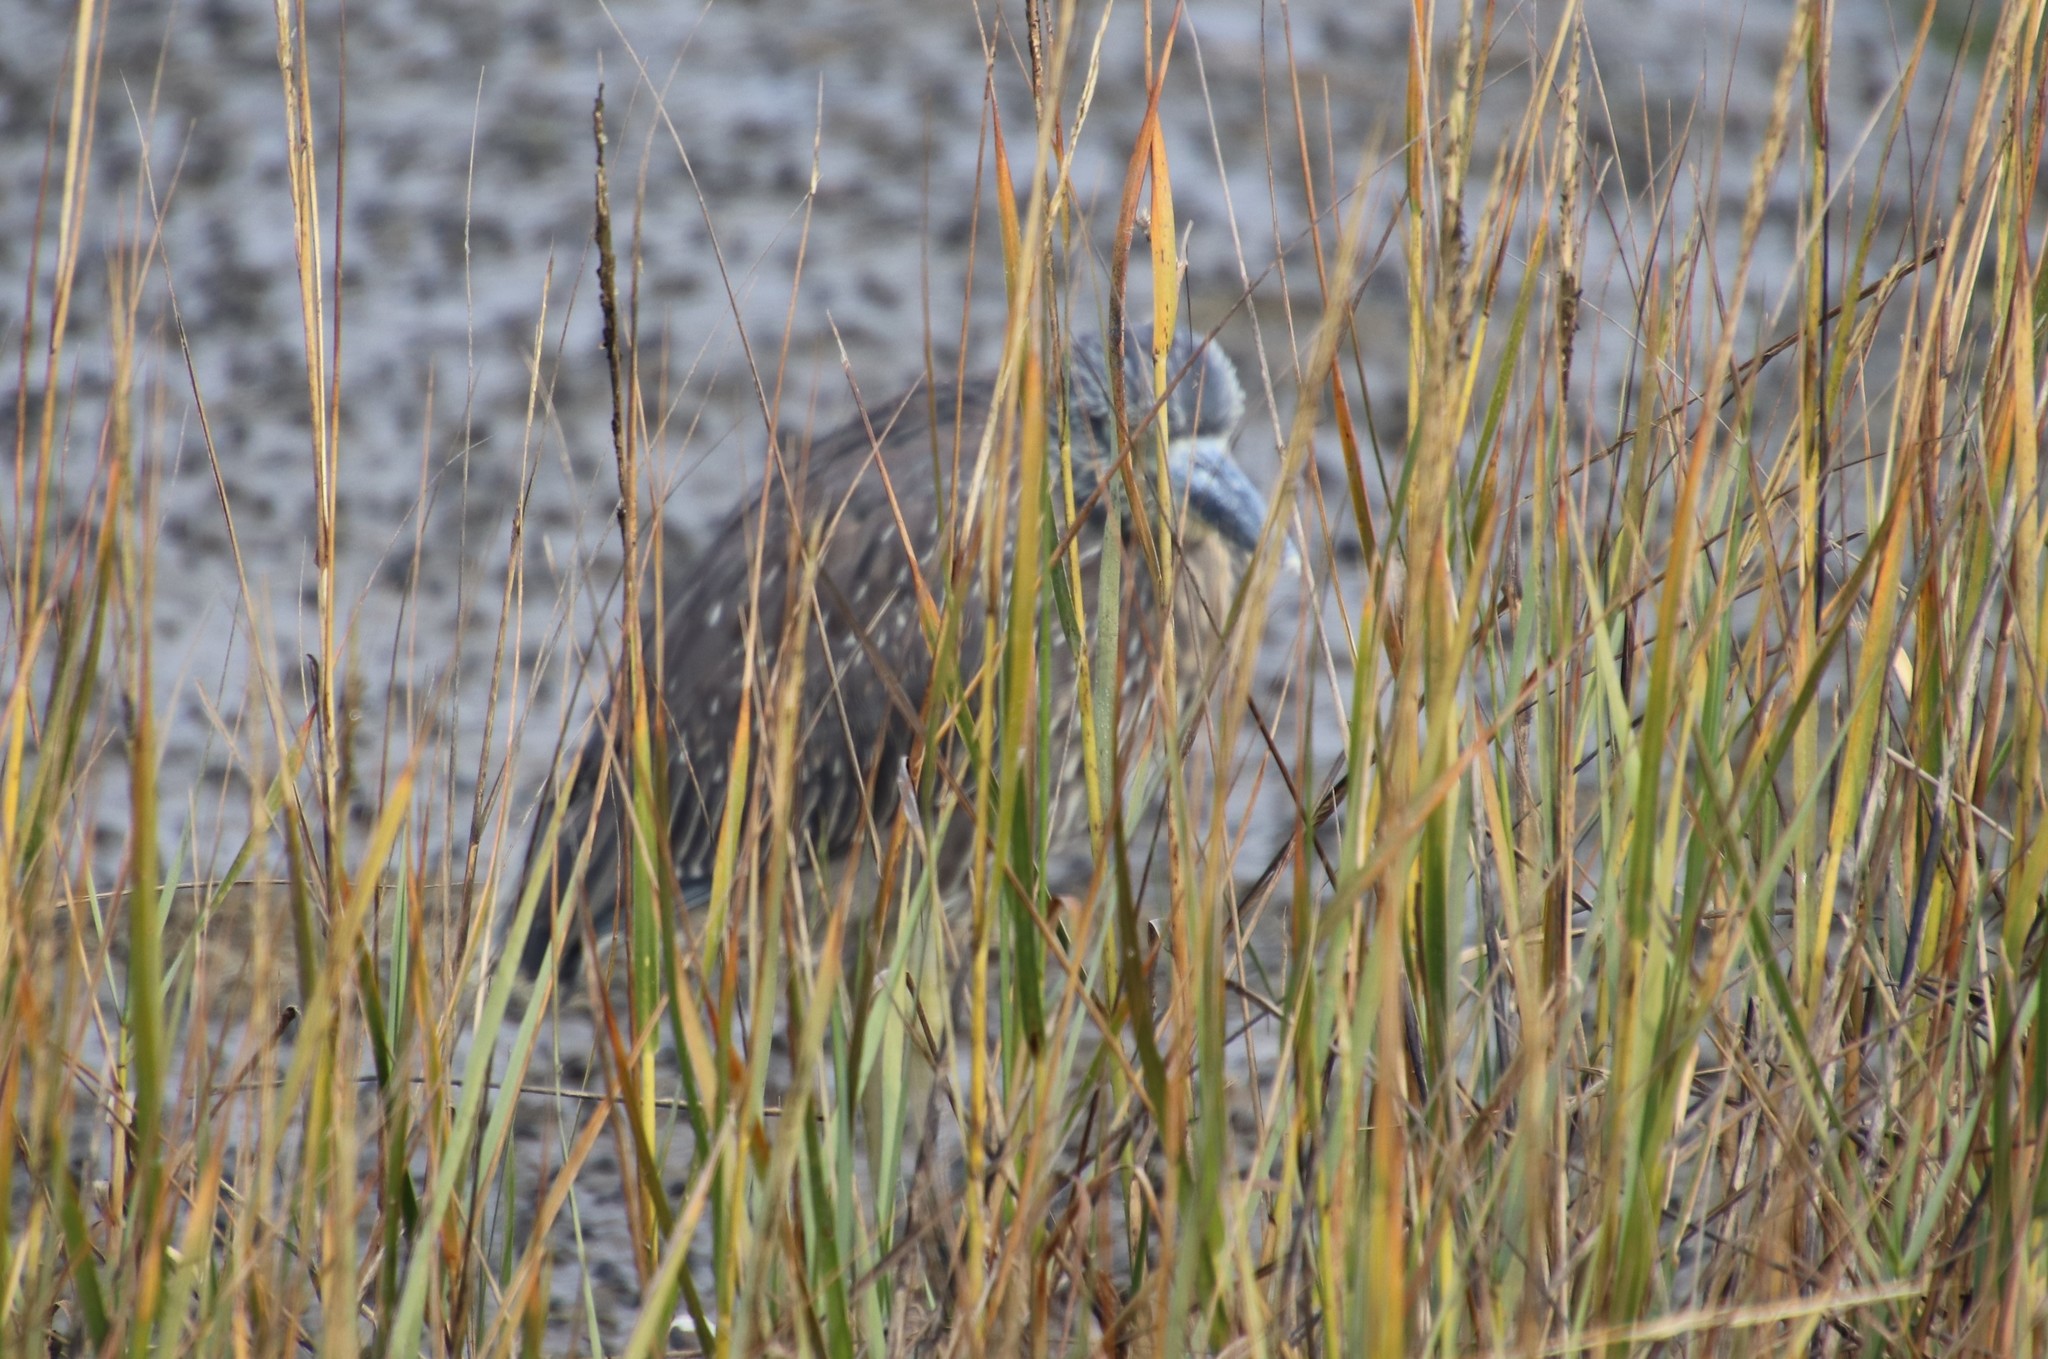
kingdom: Animalia
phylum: Chordata
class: Aves
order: Pelecaniformes
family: Ardeidae
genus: Nyctanassa
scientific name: Nyctanassa violacea
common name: Yellow-crowned night heron
